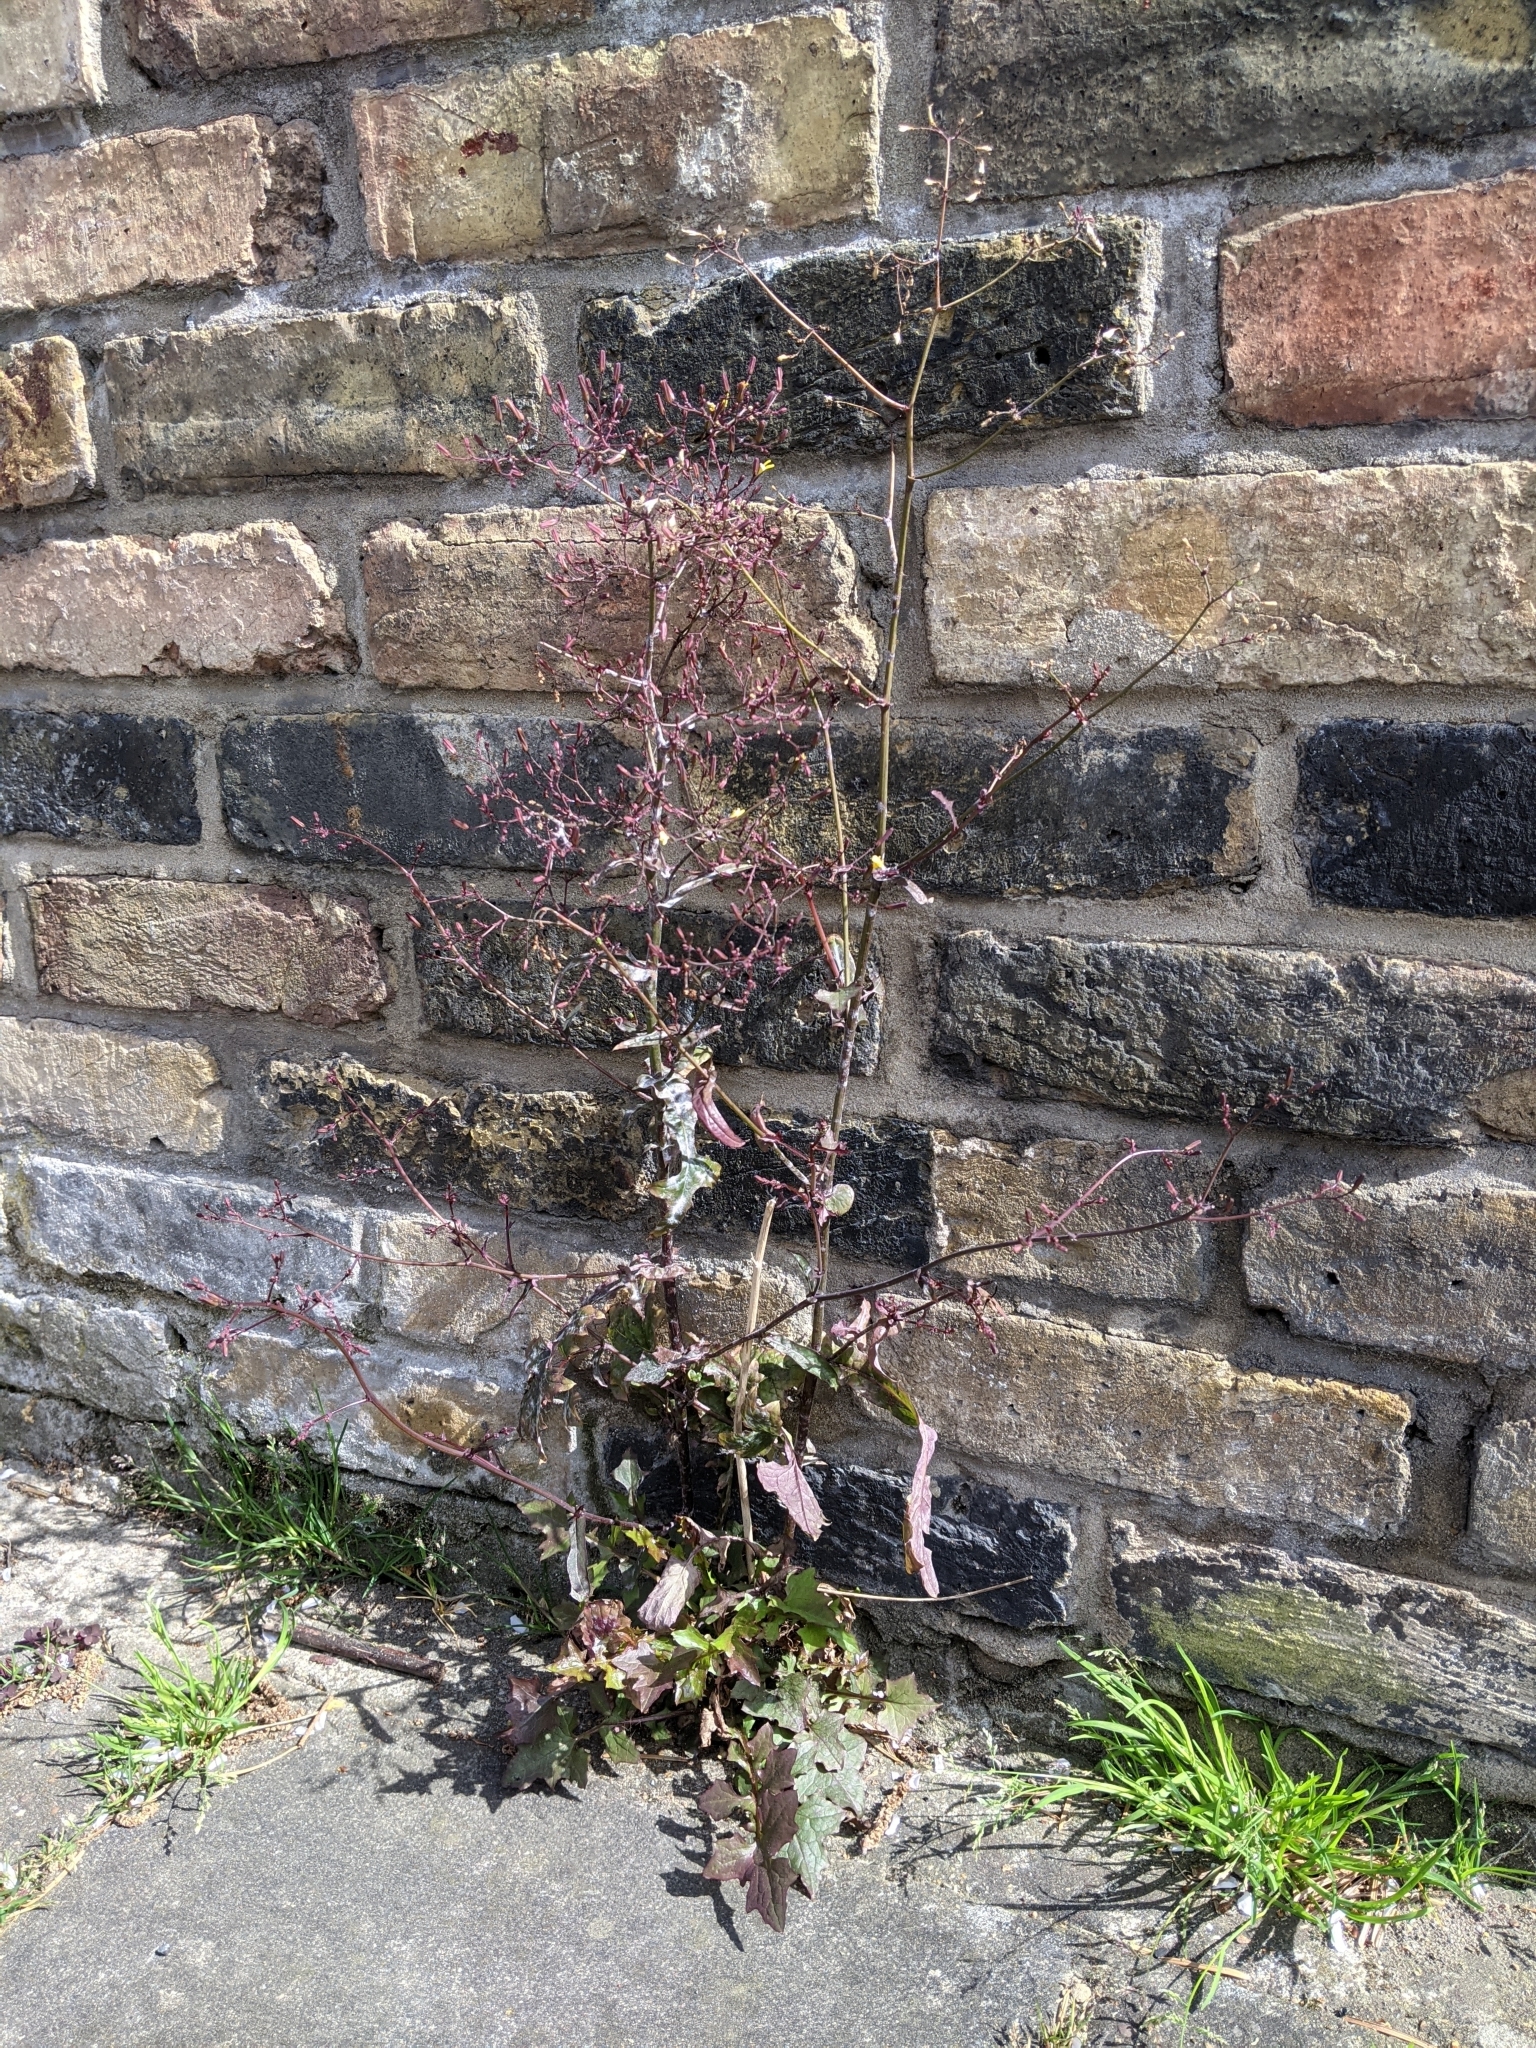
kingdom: Plantae
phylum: Tracheophyta
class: Magnoliopsida
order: Asterales
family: Asteraceae
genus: Mycelis
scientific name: Mycelis muralis
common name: Wall lettuce
